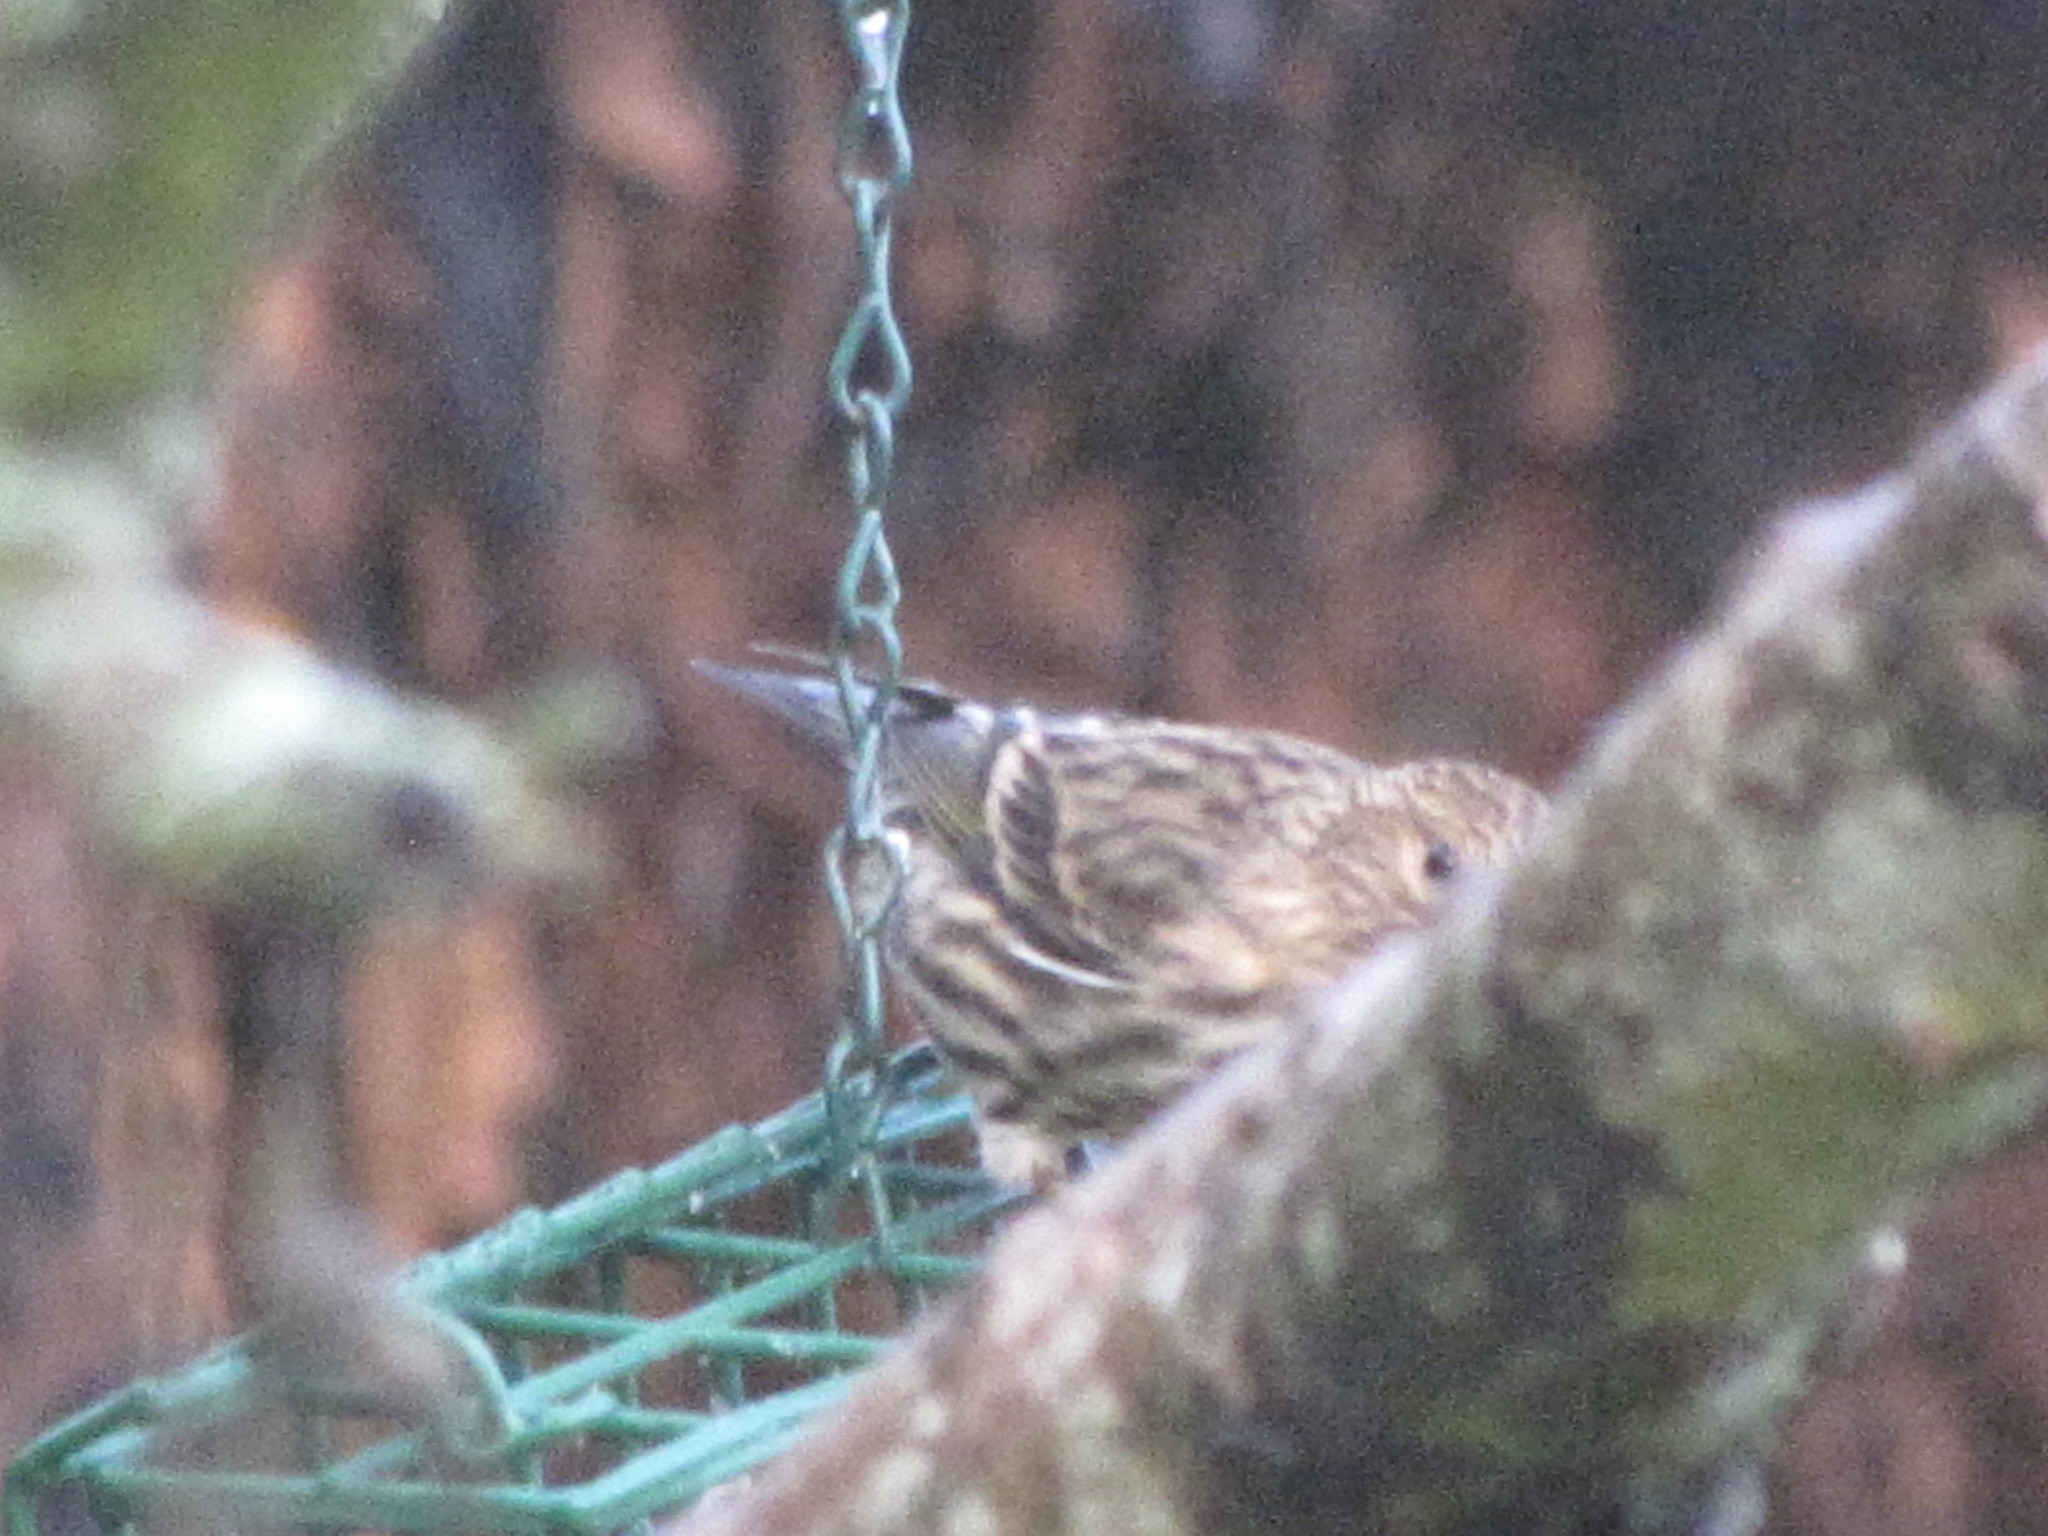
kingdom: Animalia
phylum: Chordata
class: Aves
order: Passeriformes
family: Fringillidae
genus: Spinus
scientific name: Spinus pinus
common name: Pine siskin
